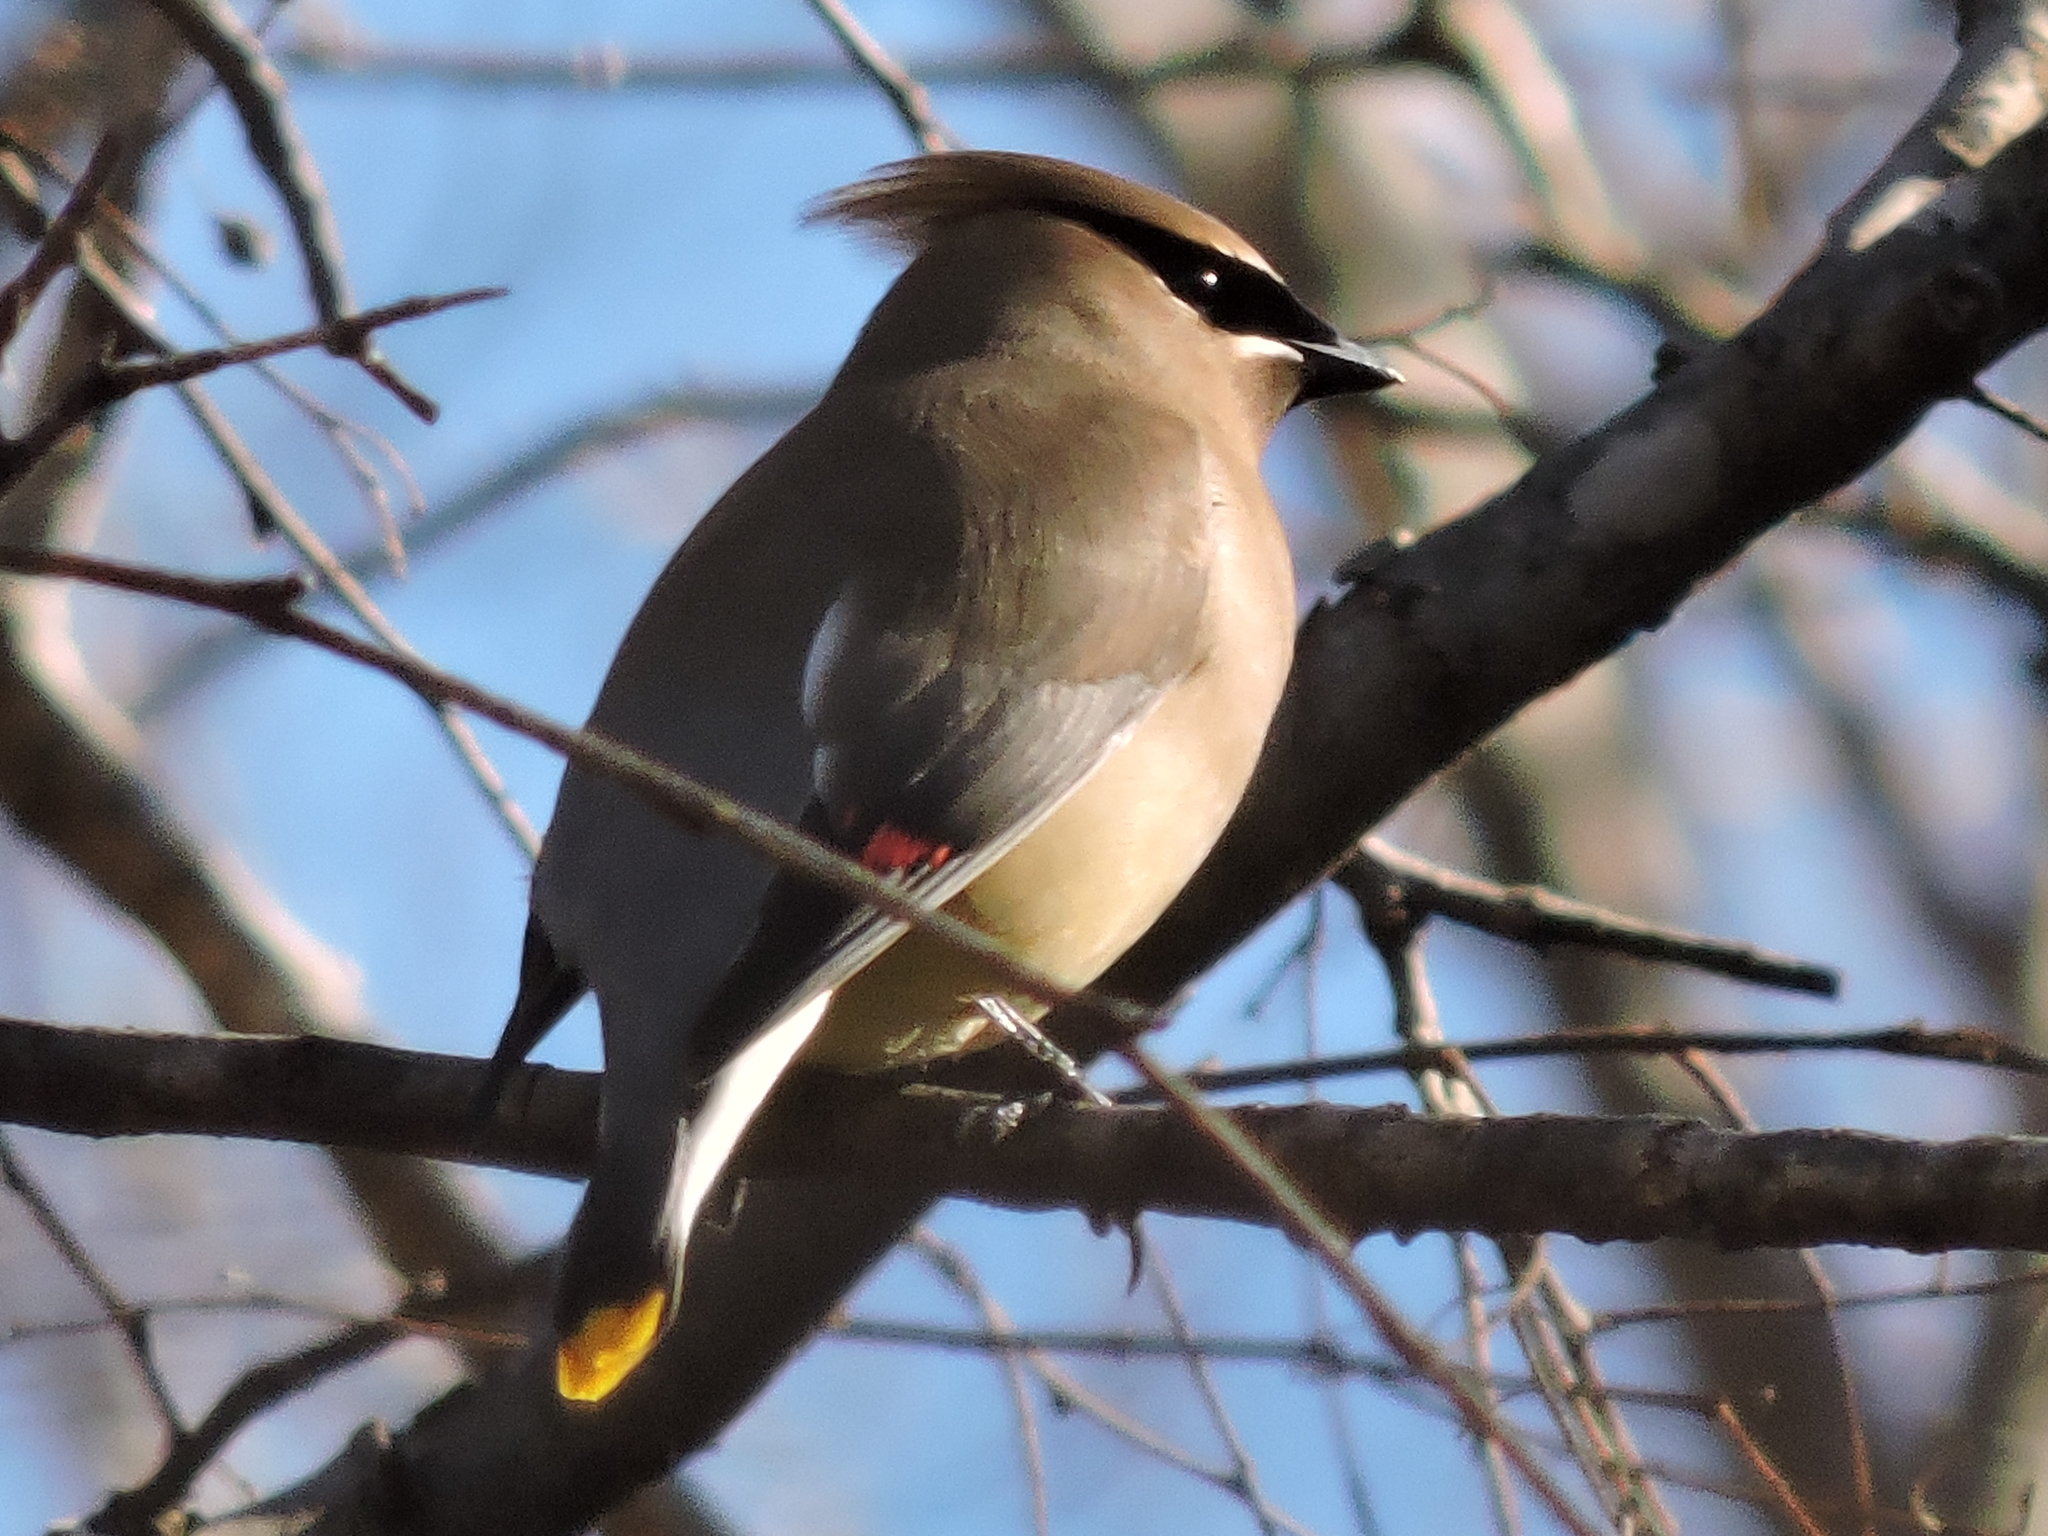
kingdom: Animalia
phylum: Chordata
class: Aves
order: Passeriformes
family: Bombycillidae
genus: Bombycilla
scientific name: Bombycilla cedrorum
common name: Cedar waxwing
